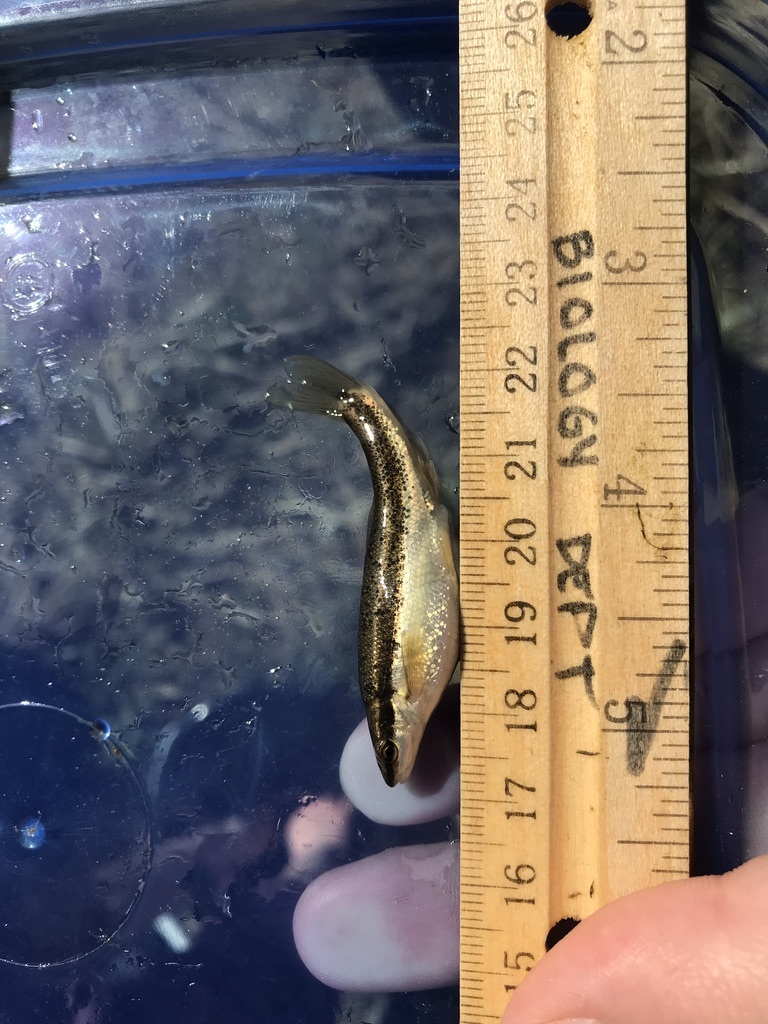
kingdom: Animalia
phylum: Chordata
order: Cypriniformes
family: Cyprinidae
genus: Rhinichthys
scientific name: Rhinichthys atratulus
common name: Eastern blacknose dace
